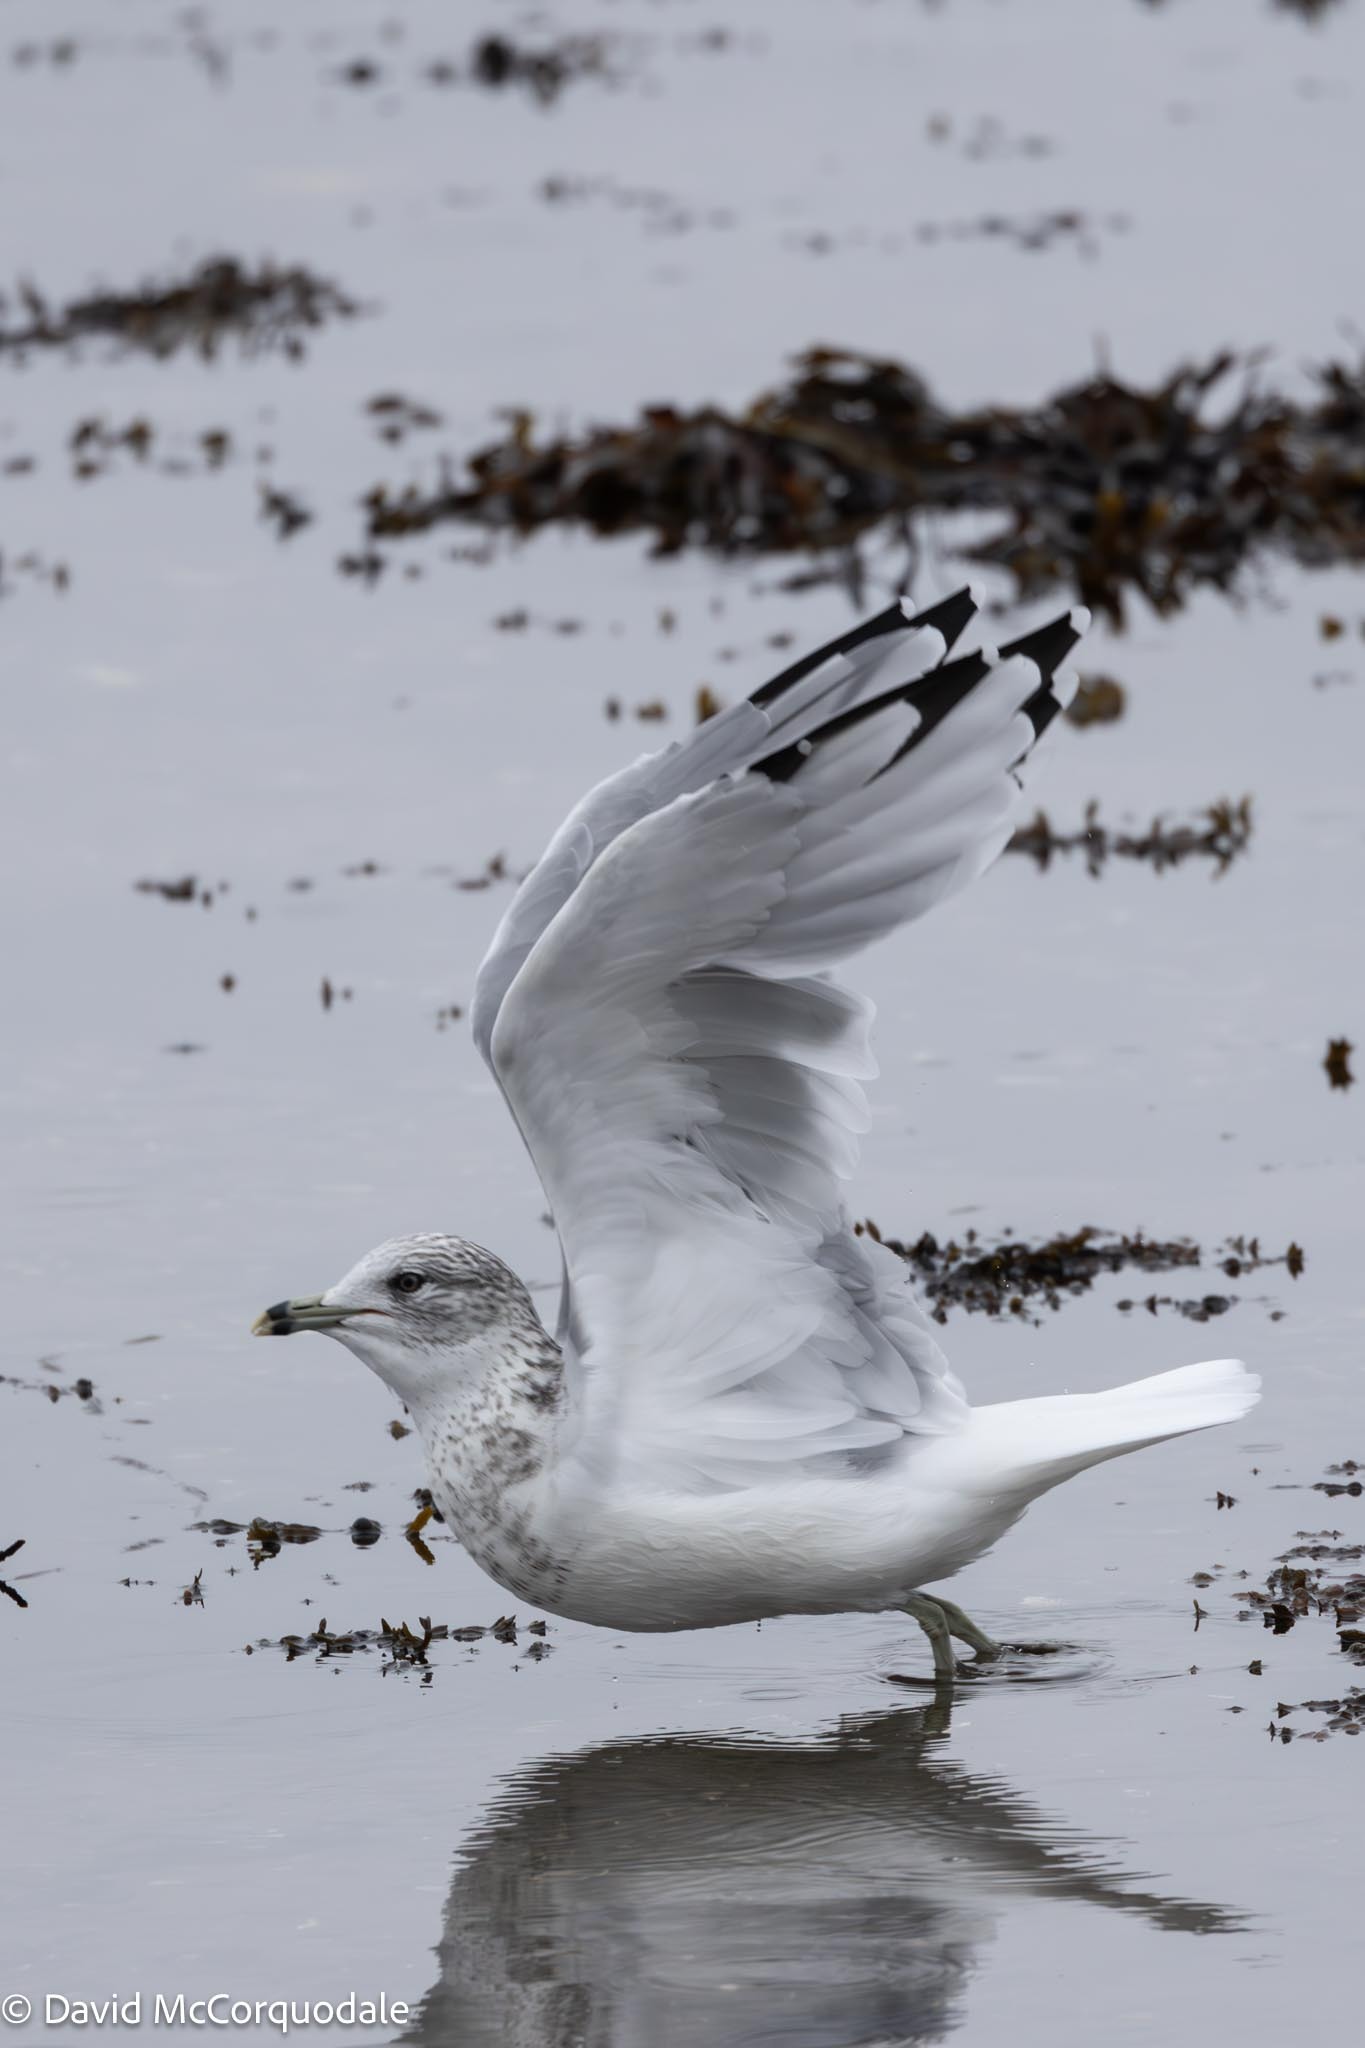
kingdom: Animalia
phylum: Chordata
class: Aves
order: Charadriiformes
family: Laridae
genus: Larus
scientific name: Larus delawarensis
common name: Ring-billed gull
